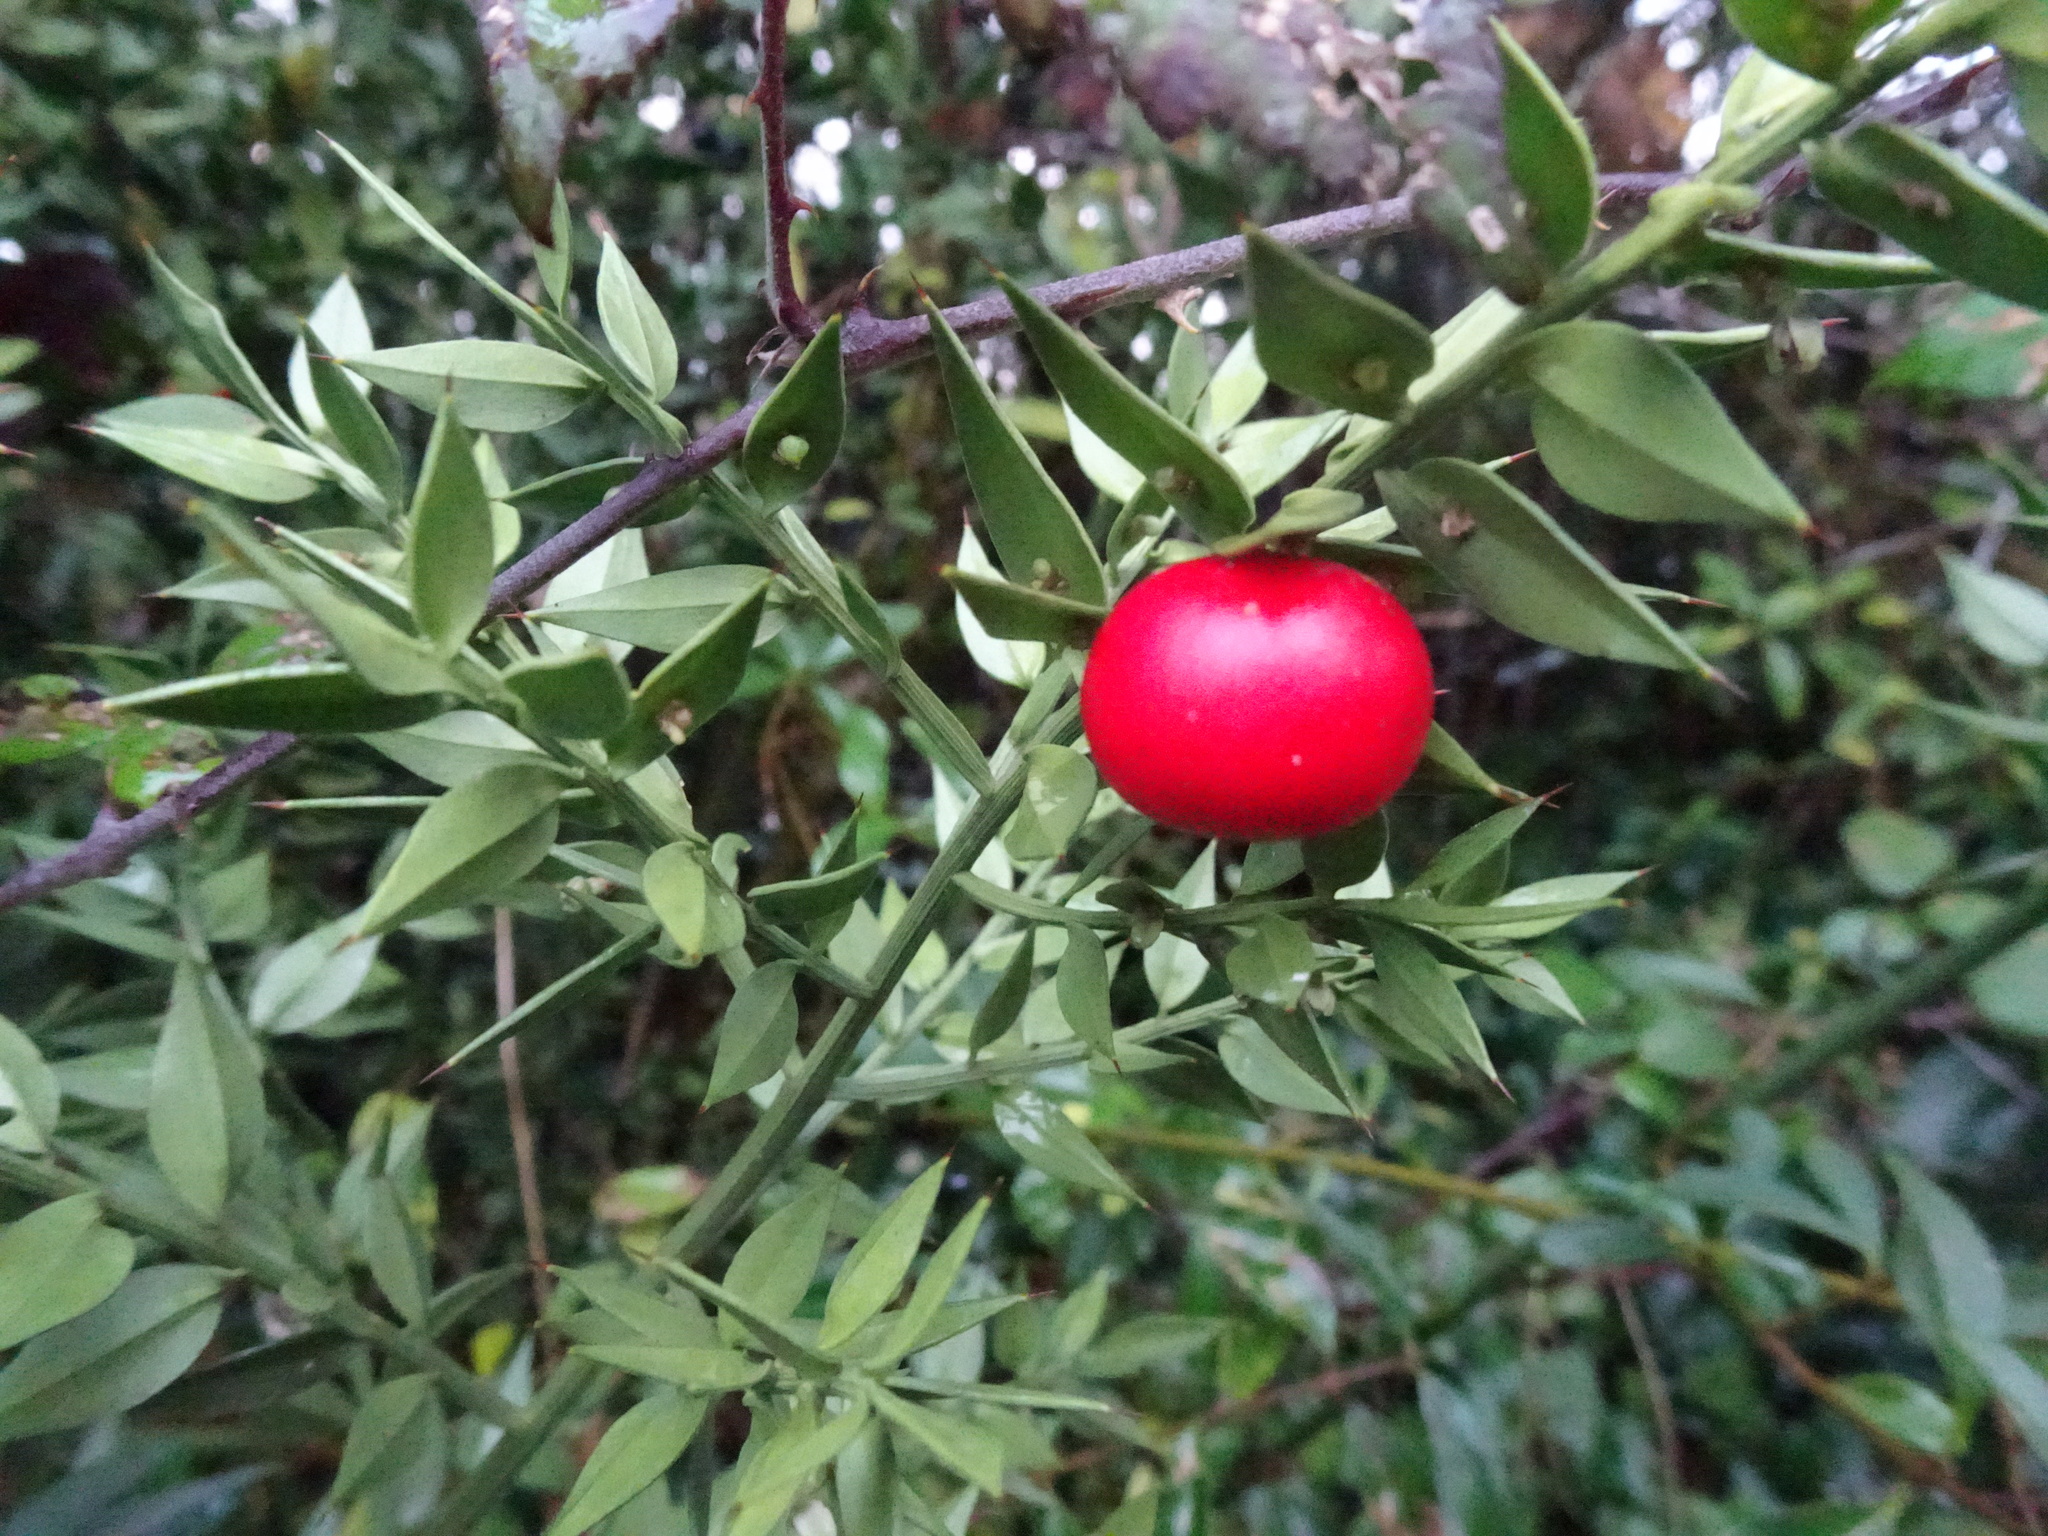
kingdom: Plantae
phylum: Tracheophyta
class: Liliopsida
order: Asparagales
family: Asparagaceae
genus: Ruscus
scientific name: Ruscus aculeatus
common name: Butcher's-broom
